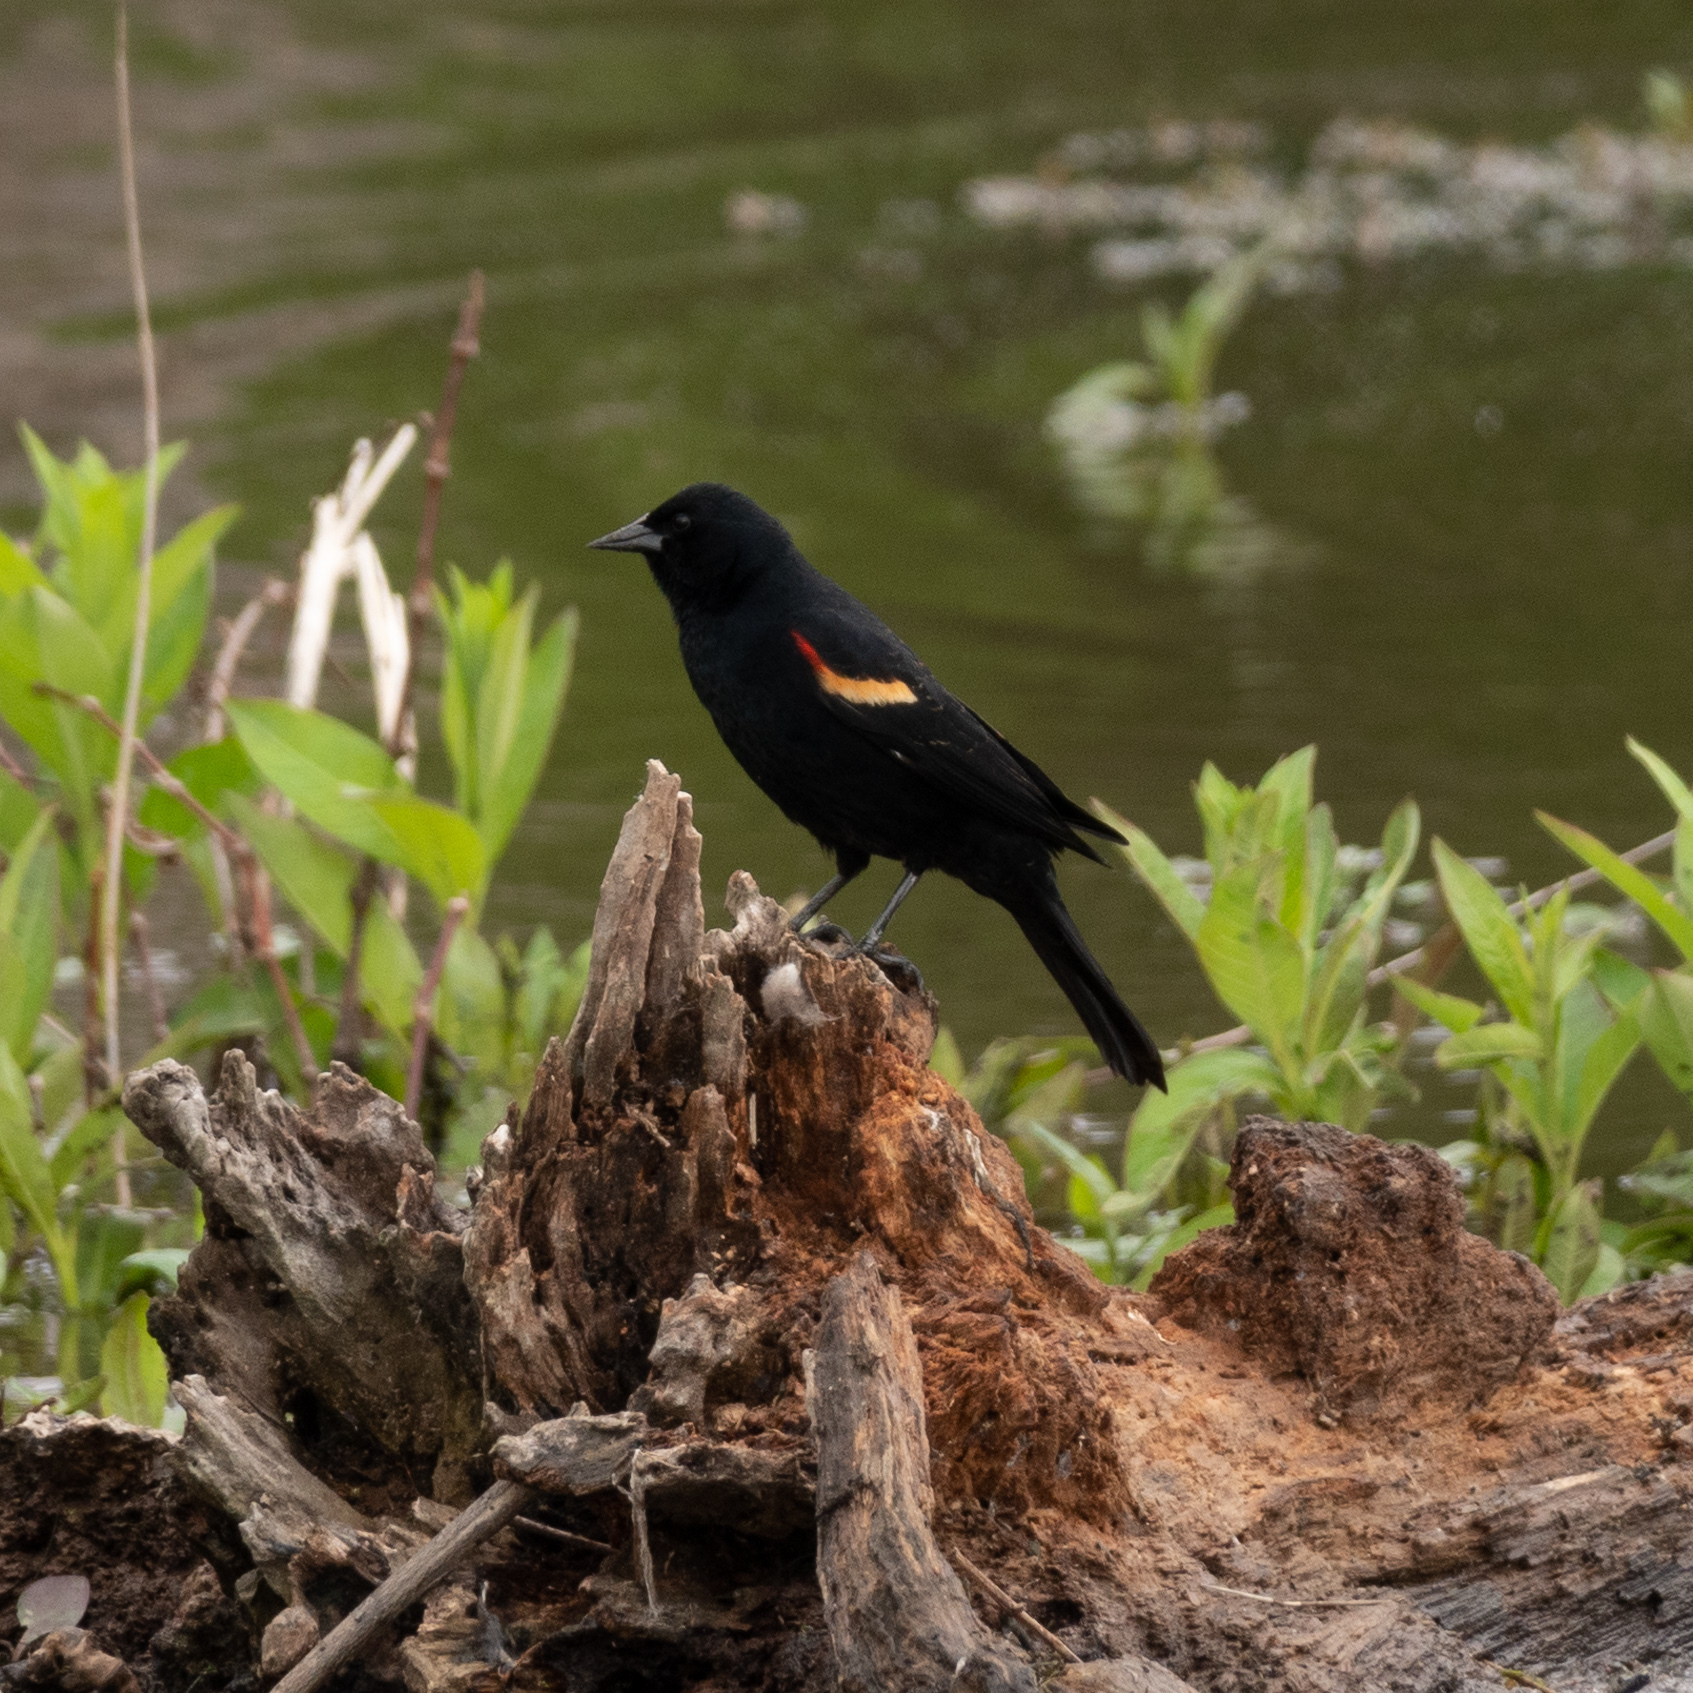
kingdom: Animalia
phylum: Chordata
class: Aves
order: Passeriformes
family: Icteridae
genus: Agelaius
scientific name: Agelaius phoeniceus
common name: Red-winged blackbird
